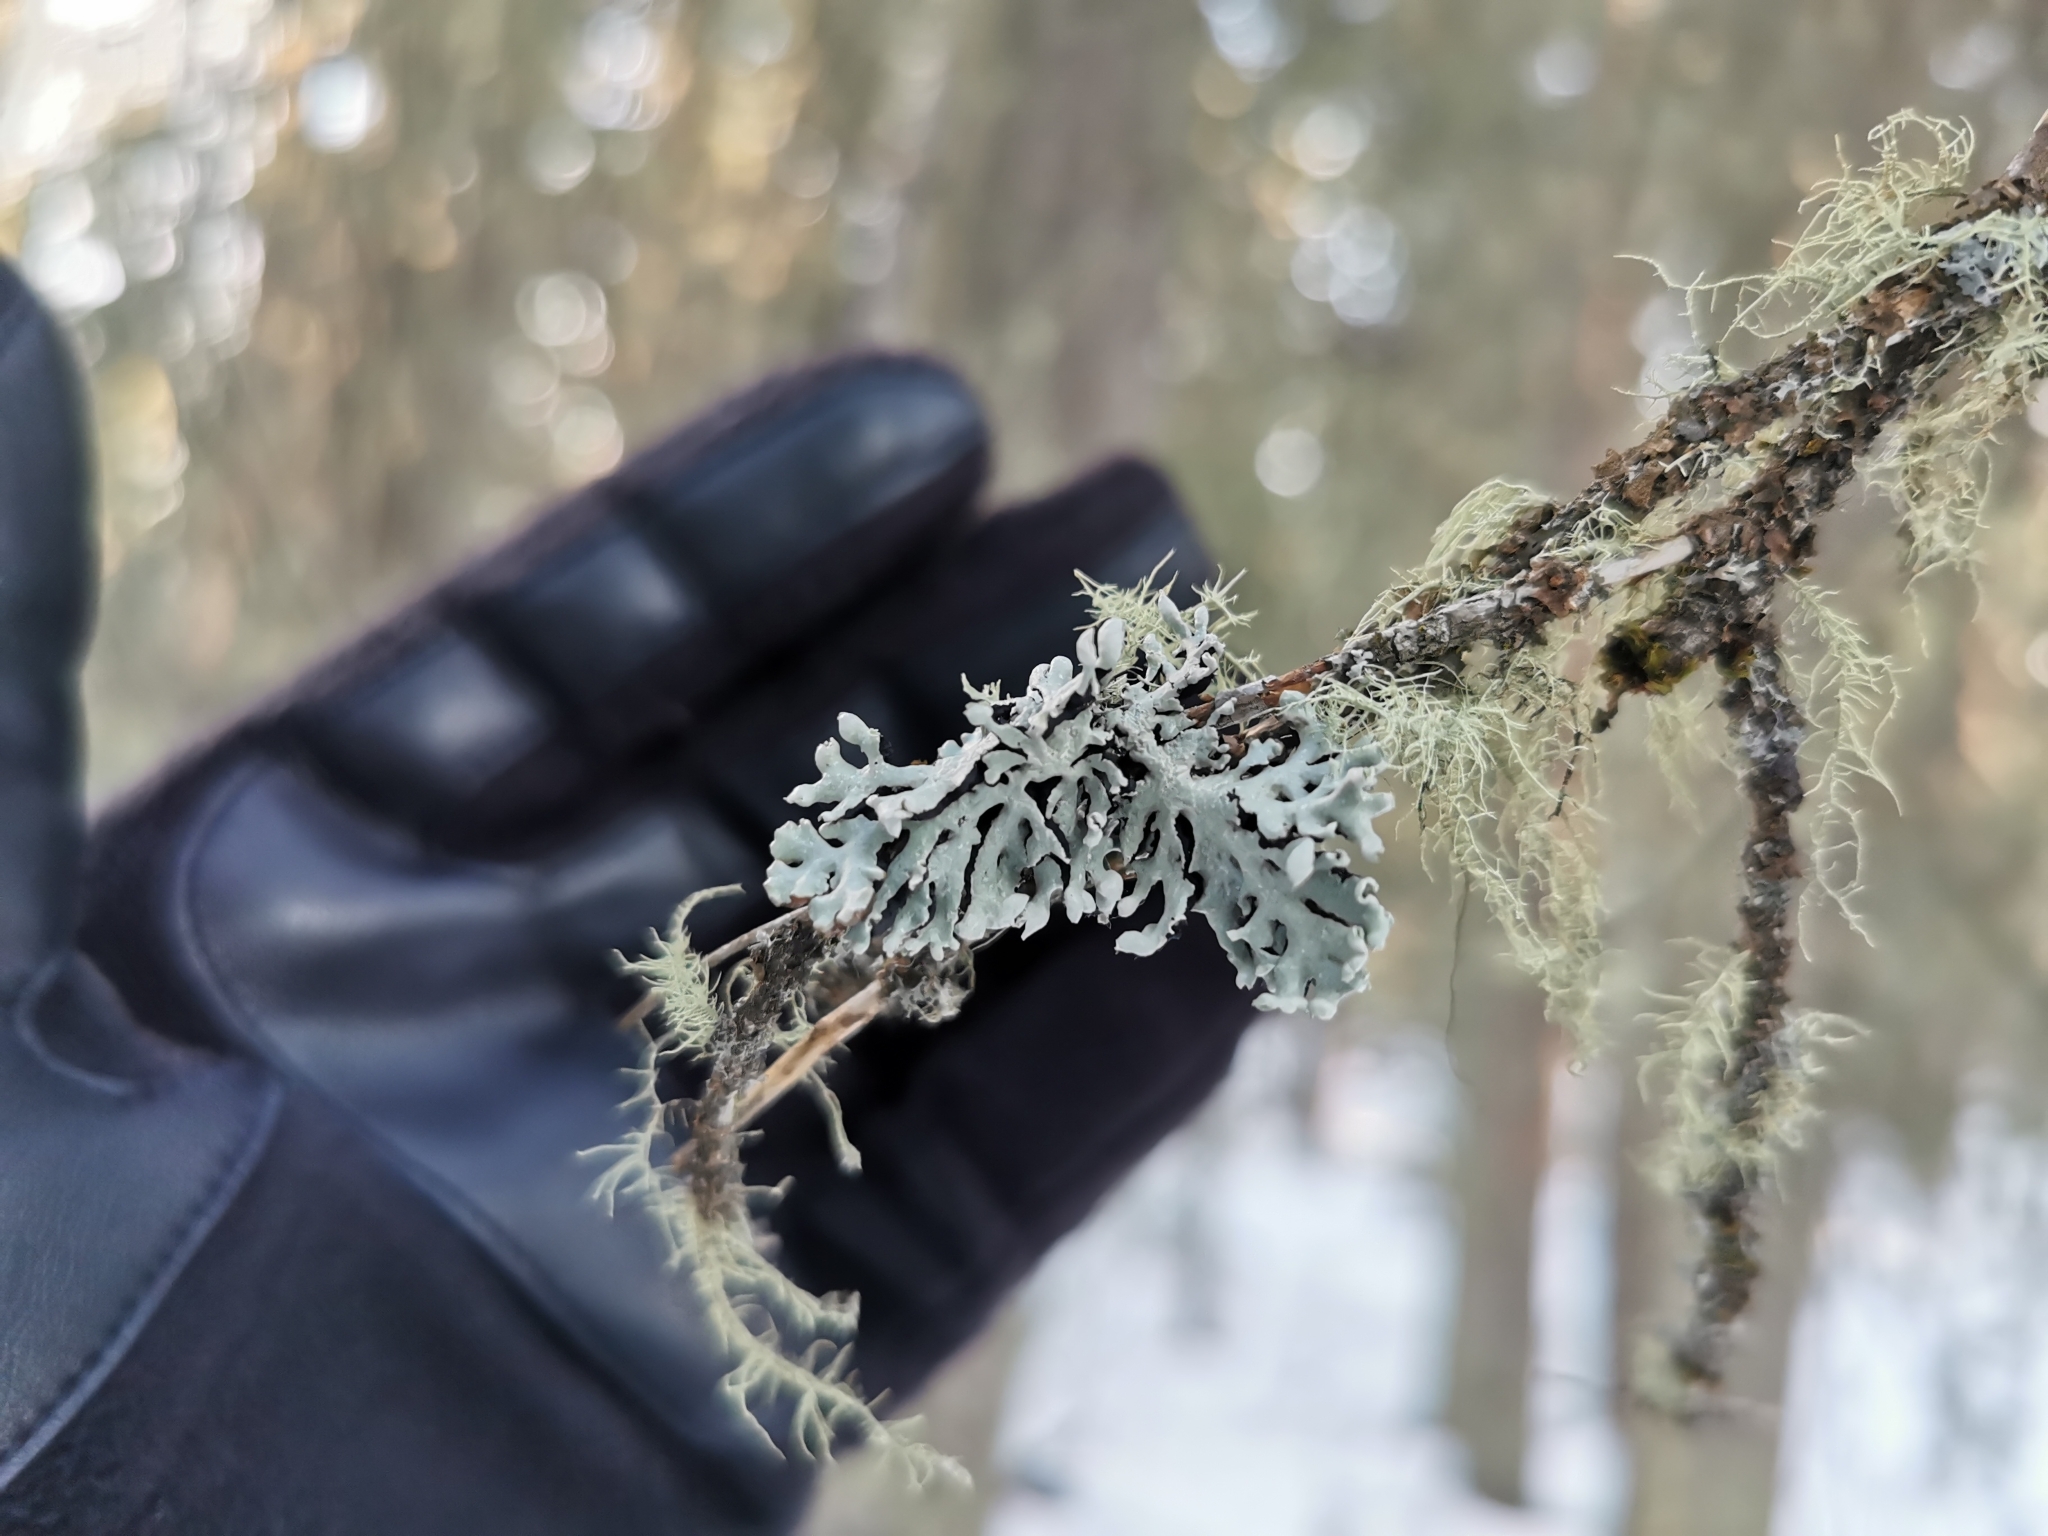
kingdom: Fungi
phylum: Ascomycota
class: Lecanoromycetes
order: Lecanorales
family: Parmeliaceae
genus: Hypogymnia
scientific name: Hypogymnia physodes
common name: Dark crottle
